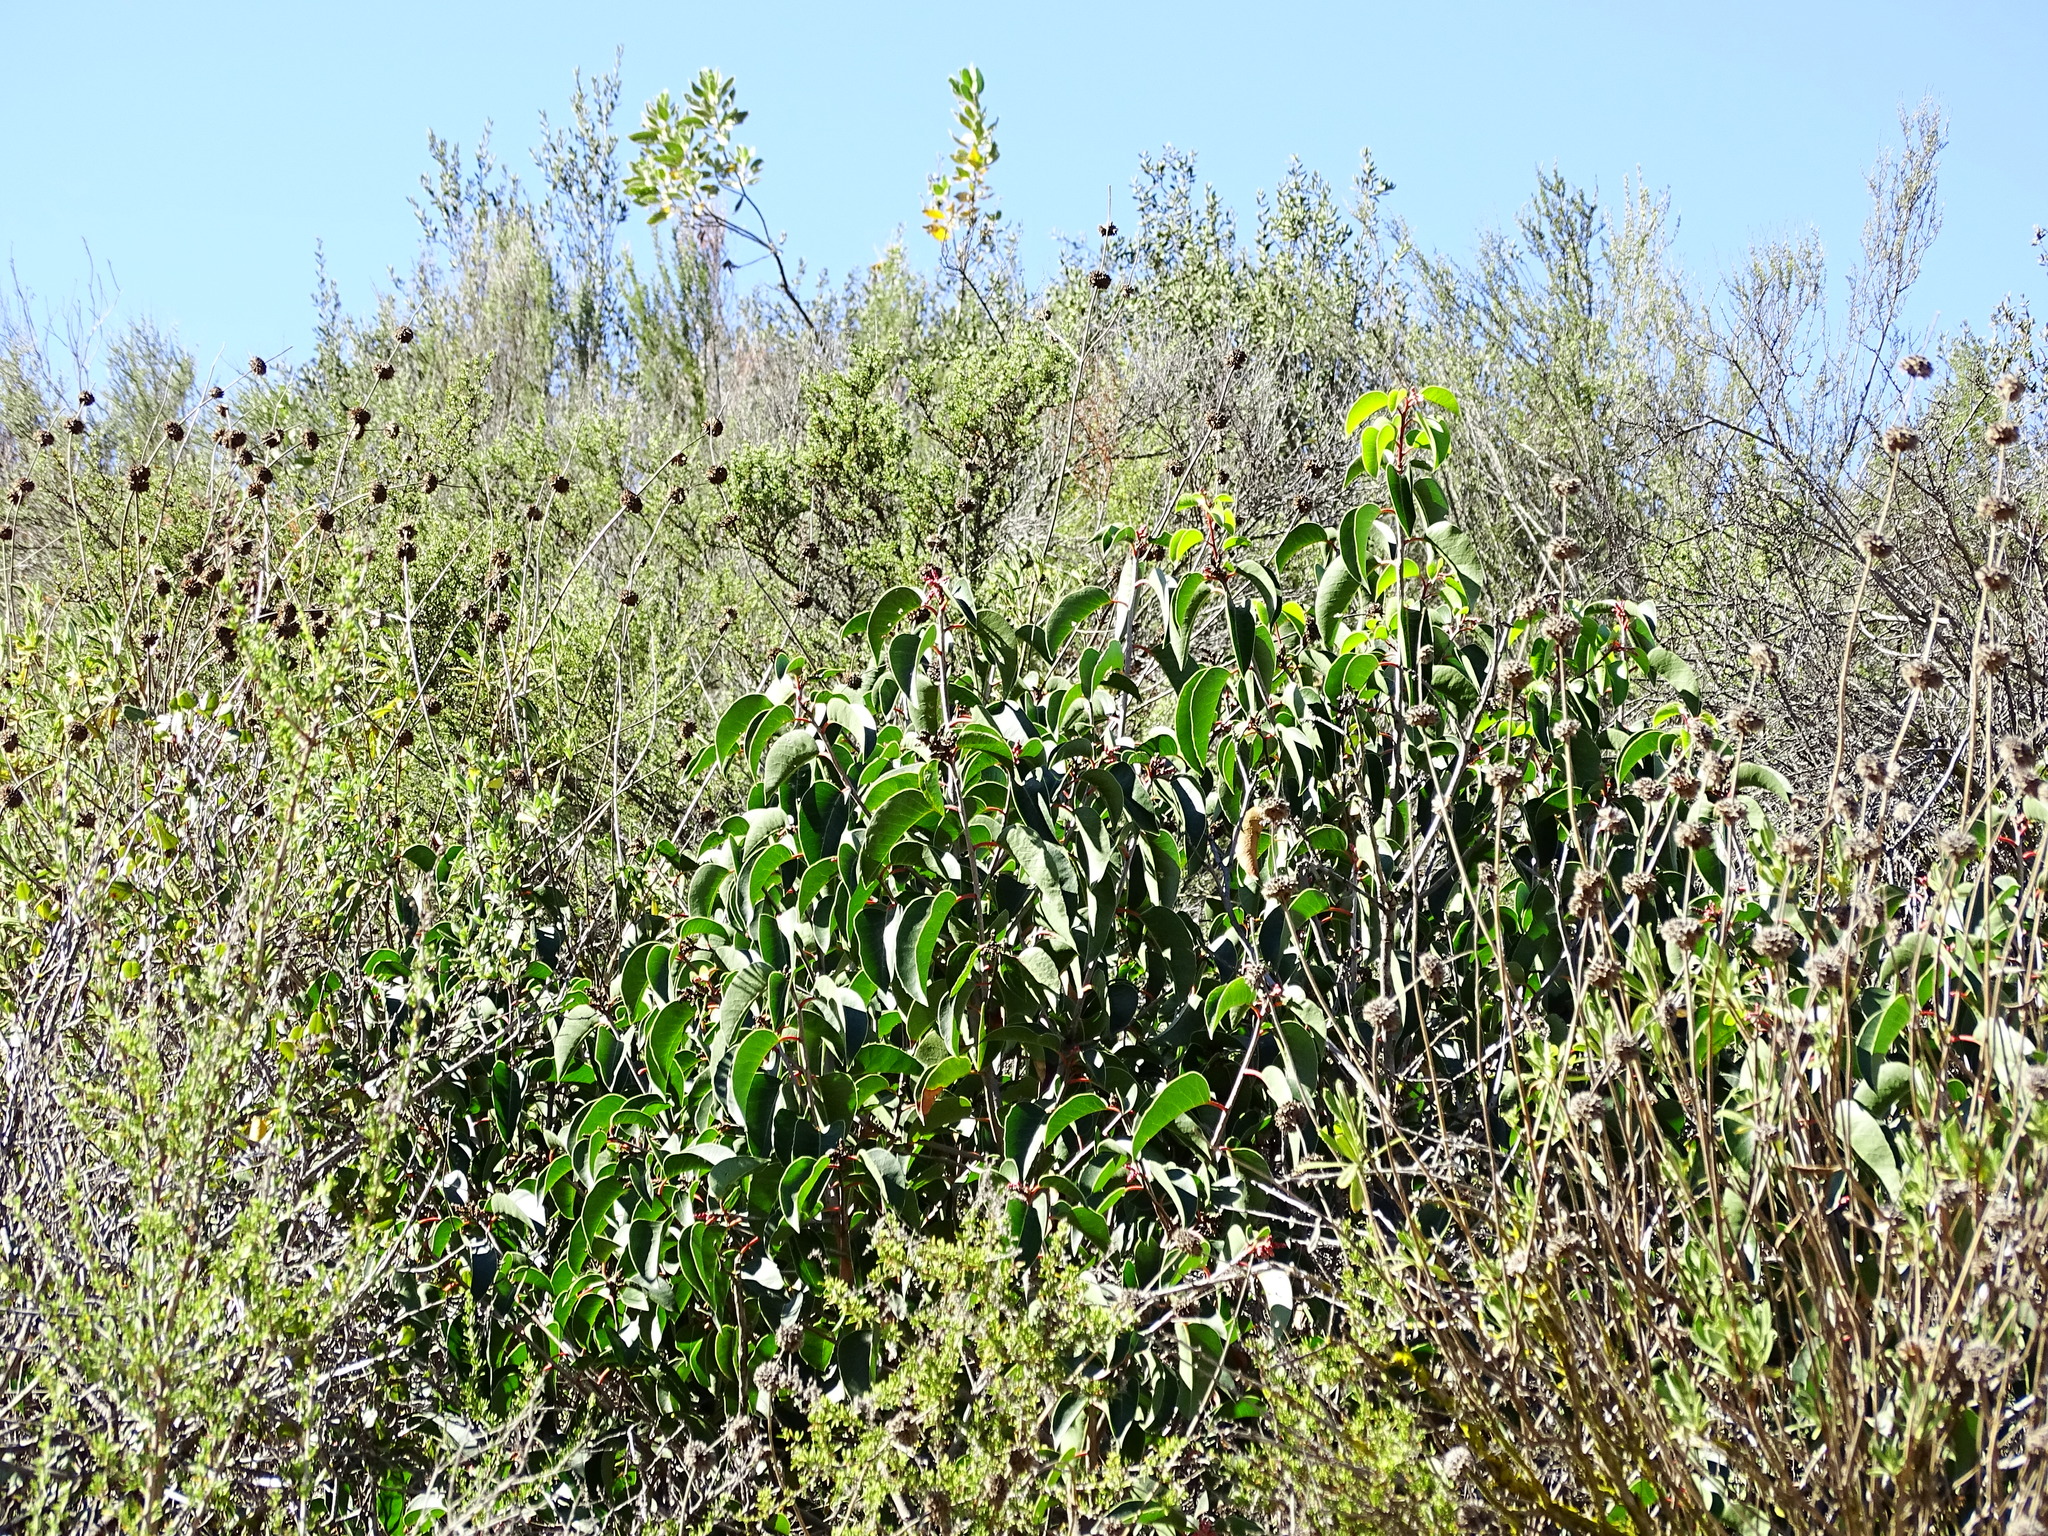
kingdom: Plantae
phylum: Tracheophyta
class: Magnoliopsida
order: Sapindales
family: Anacardiaceae
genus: Rhus
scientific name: Rhus ovata
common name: Sugar sumac
